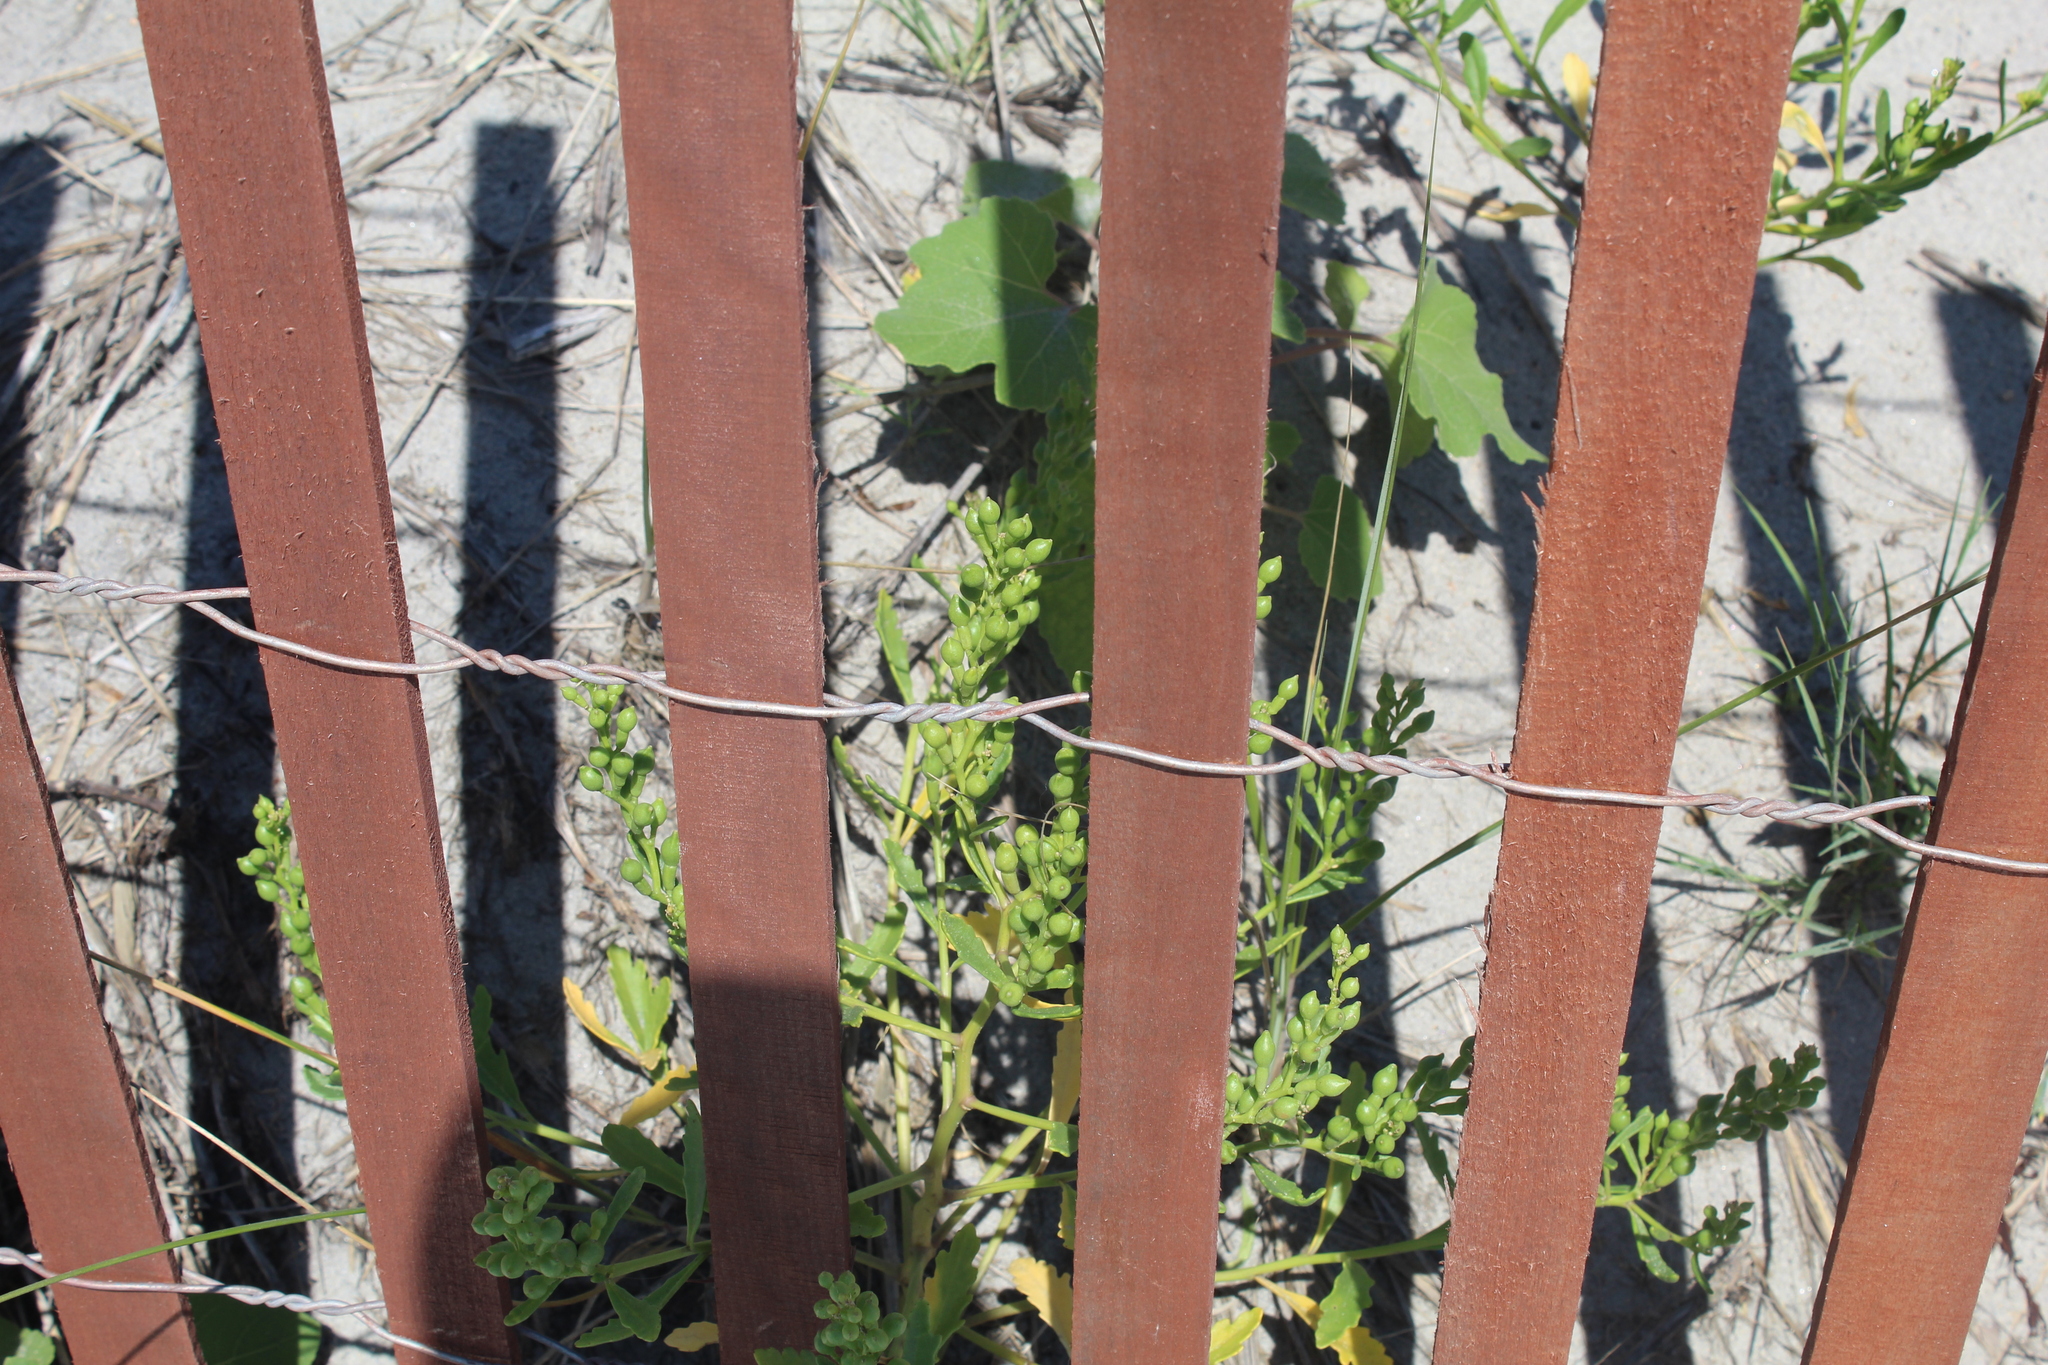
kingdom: Plantae
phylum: Tracheophyta
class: Magnoliopsida
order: Brassicales
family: Brassicaceae
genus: Cakile
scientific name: Cakile edentula
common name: American sea rocket
